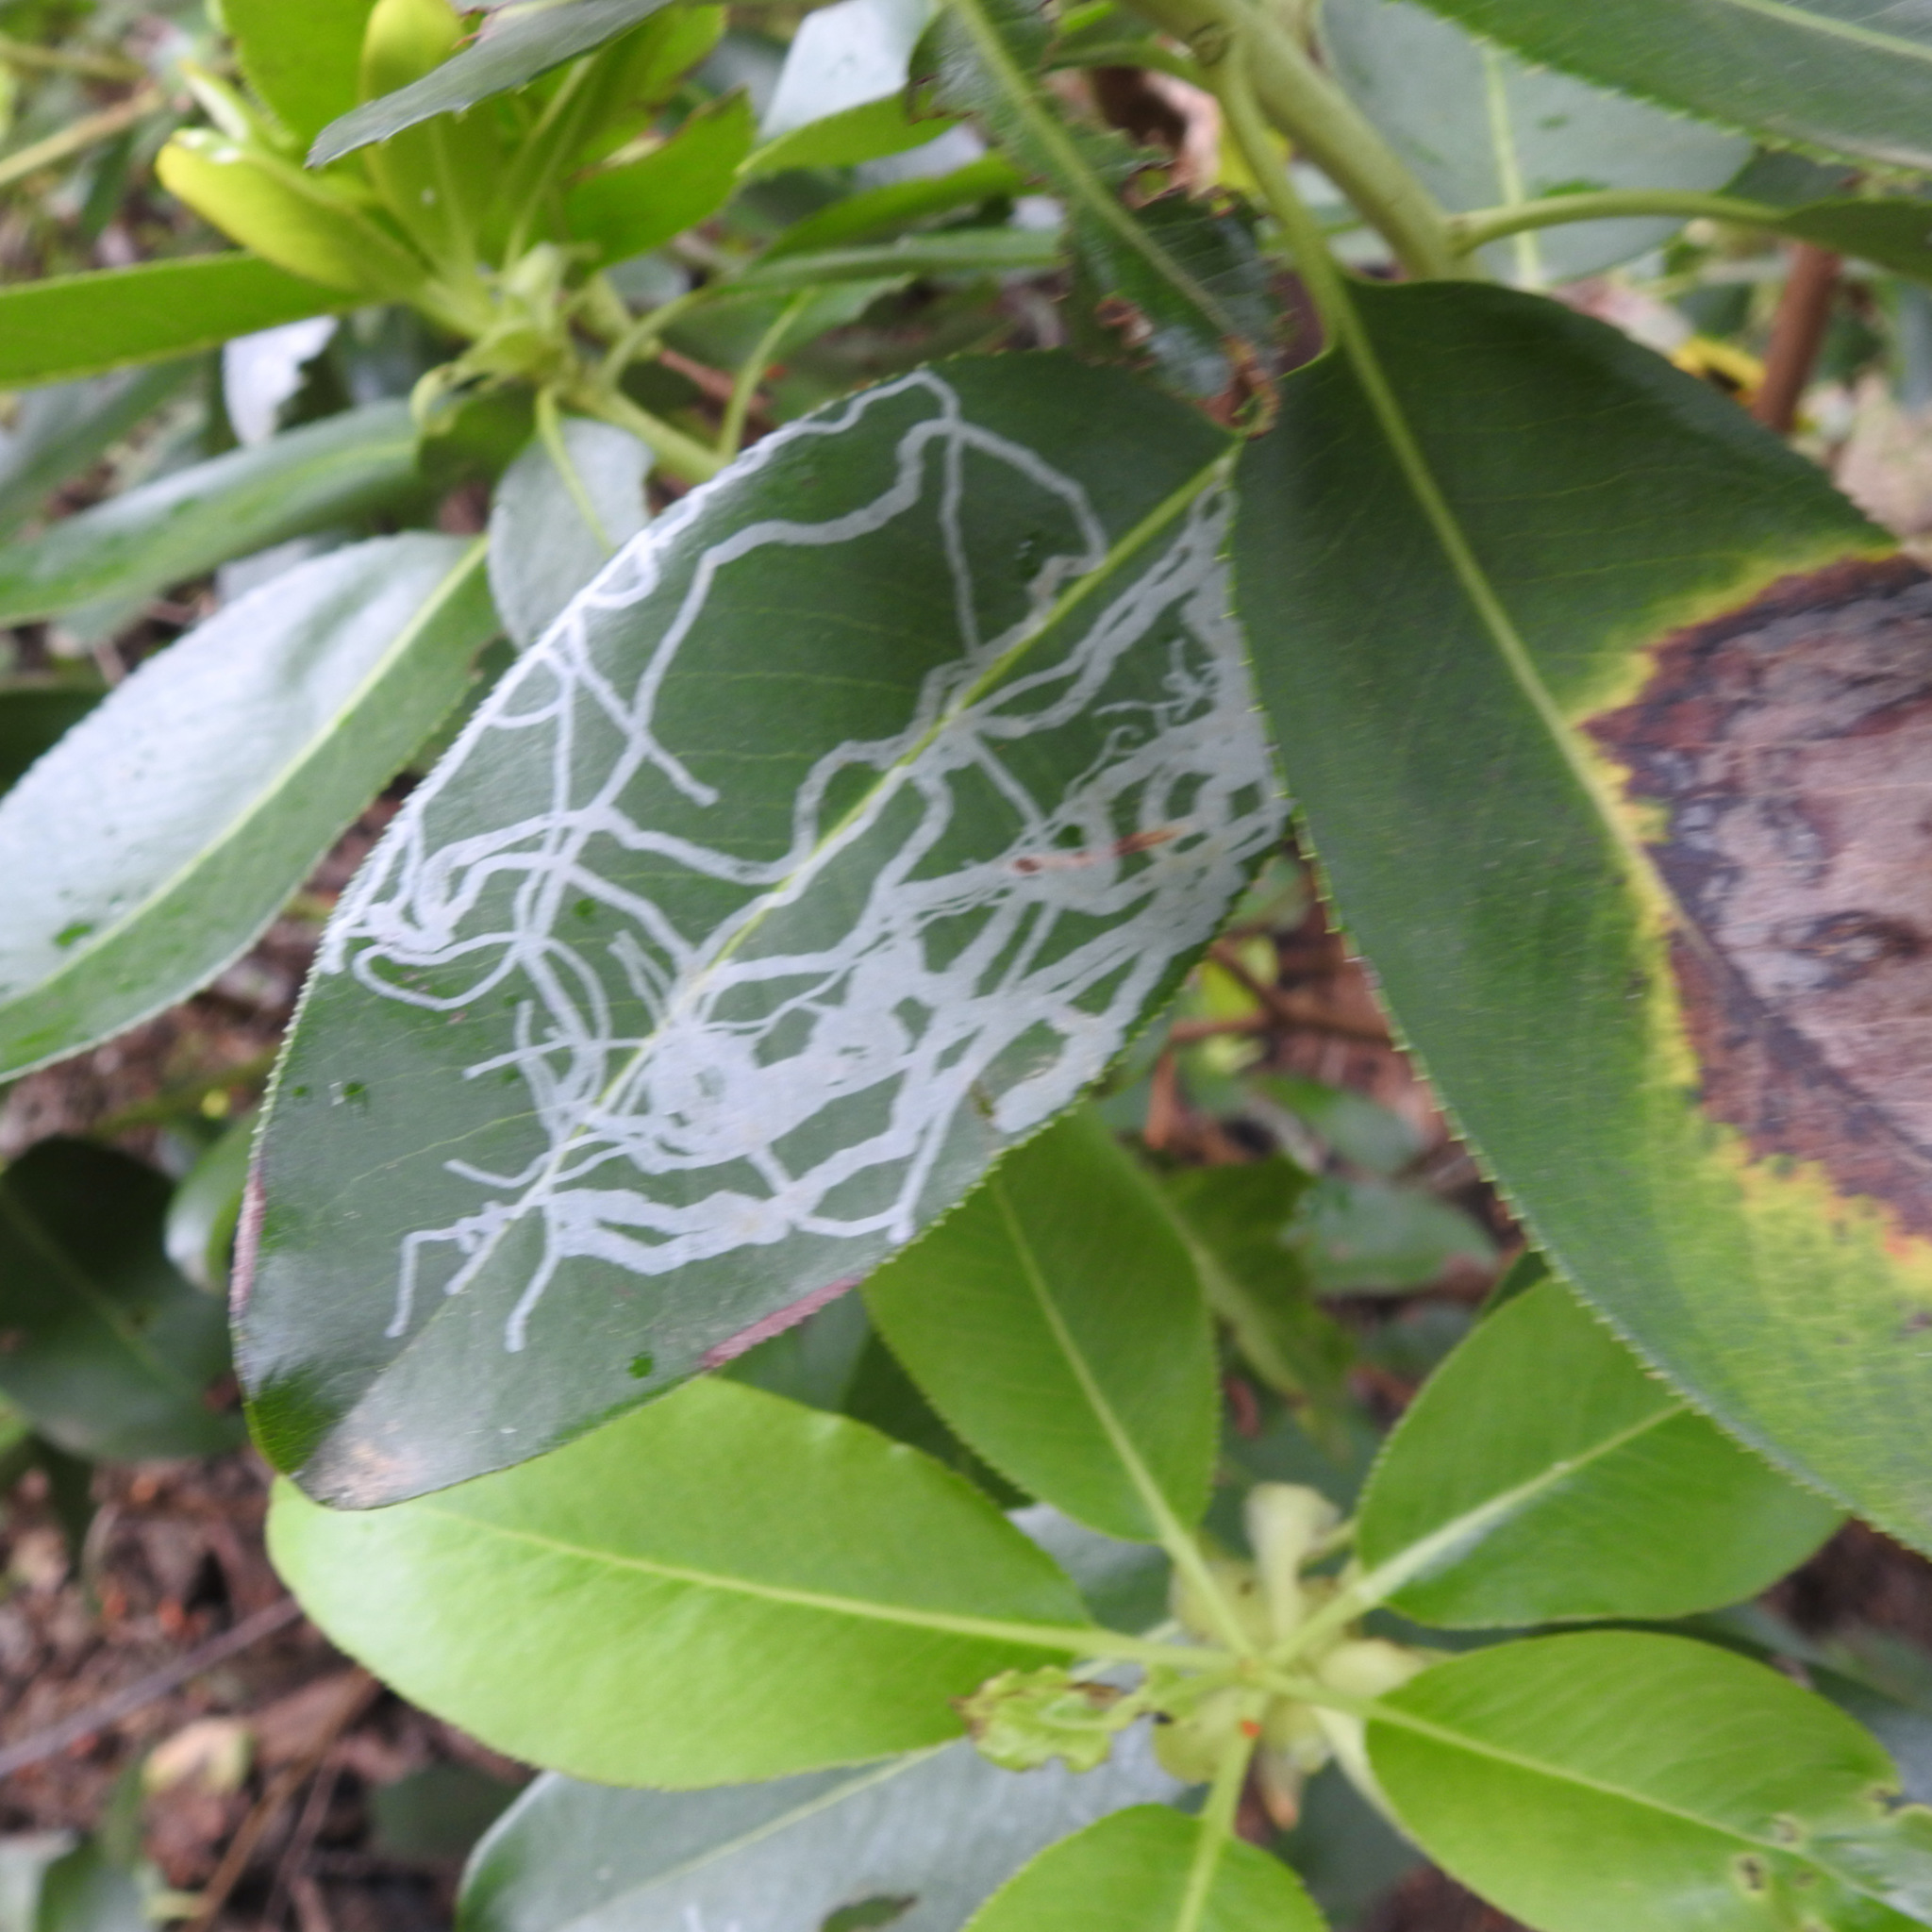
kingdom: Animalia
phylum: Arthropoda
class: Insecta
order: Lepidoptera
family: Gracillariidae
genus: Marmara
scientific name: Marmara arbutiella
